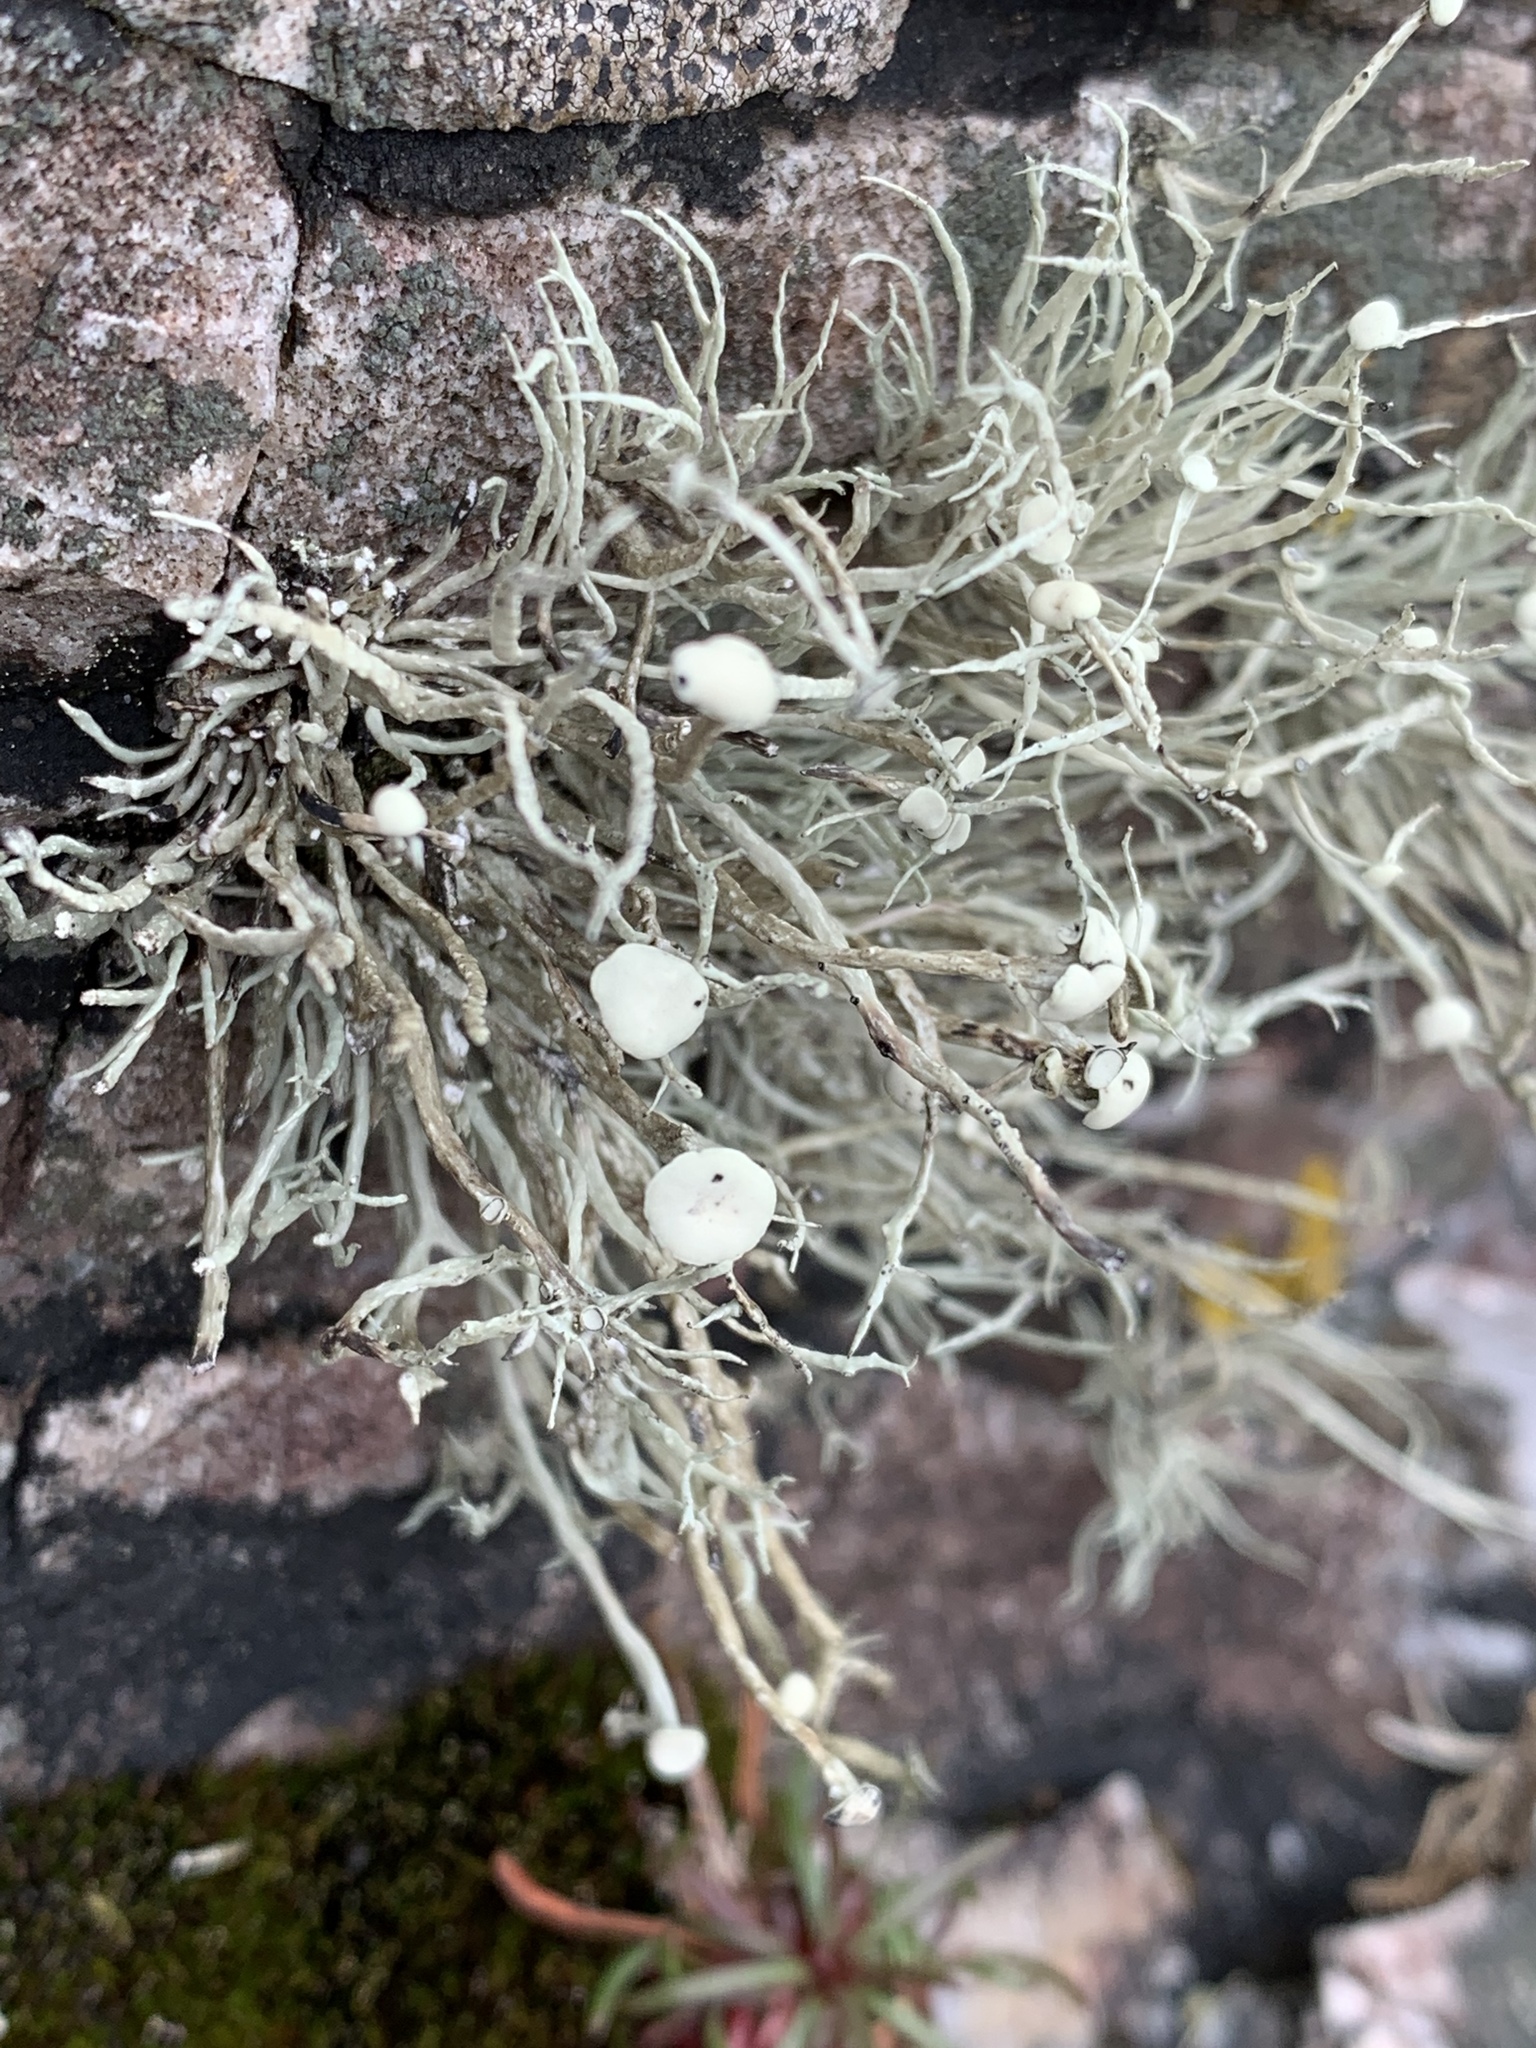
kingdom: Fungi
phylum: Ascomycota
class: Lecanoromycetes
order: Lecanorales
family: Ramalinaceae
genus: Ramalina
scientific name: Ramalina cuspidata
